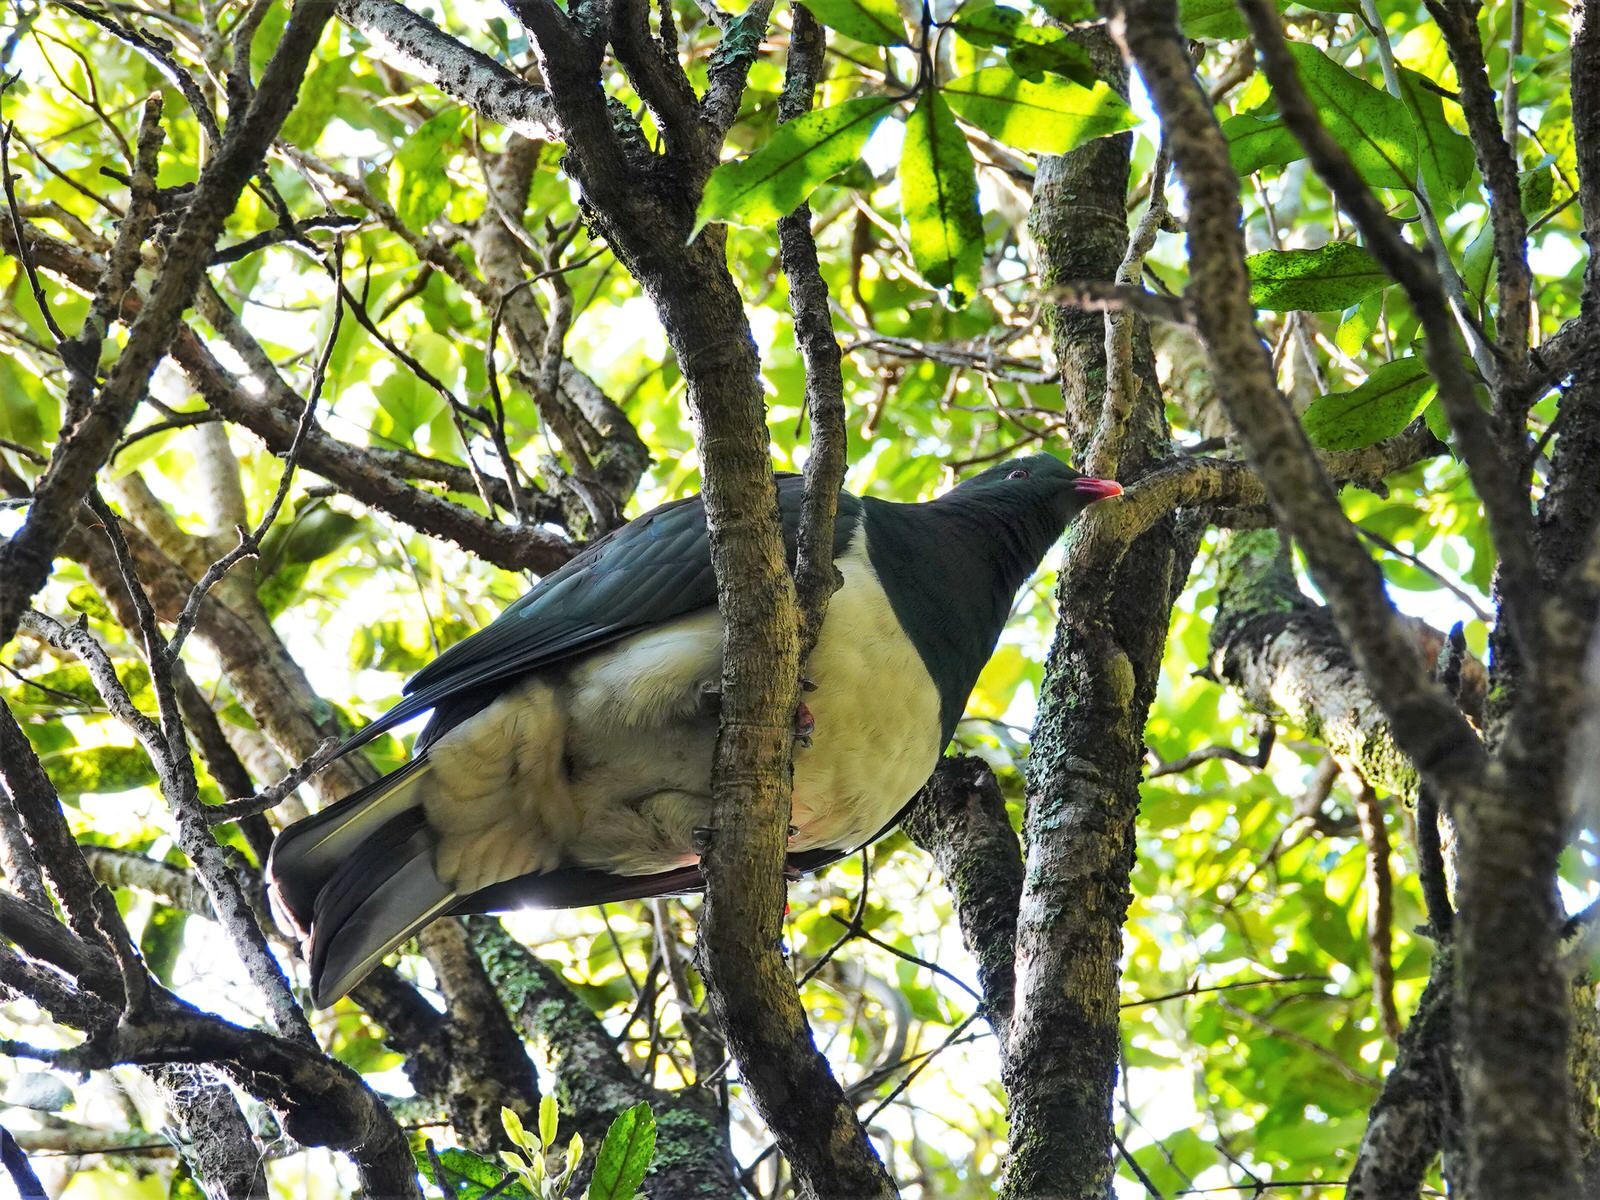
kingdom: Animalia
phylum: Chordata
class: Aves
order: Columbiformes
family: Columbidae
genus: Hemiphaga
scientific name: Hemiphaga novaeseelandiae
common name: New zealand pigeon
